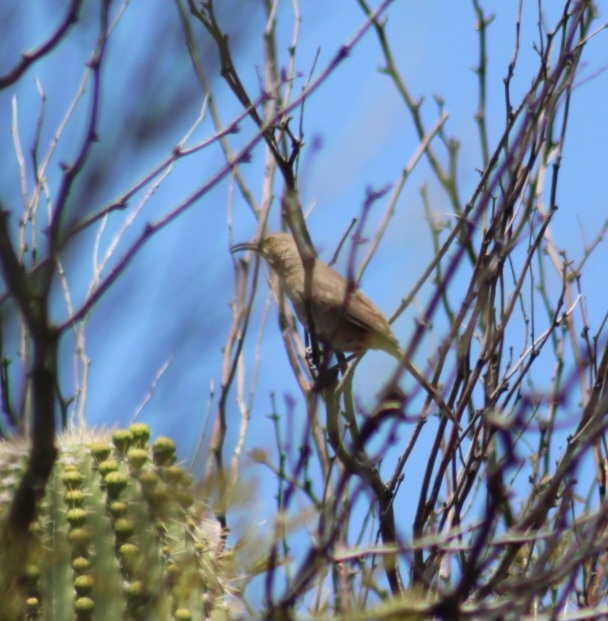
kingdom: Animalia
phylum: Chordata
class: Aves
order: Passeriformes
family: Mimidae
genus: Toxostoma
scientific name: Toxostoma curvirostre
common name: Curve-billed thrasher
